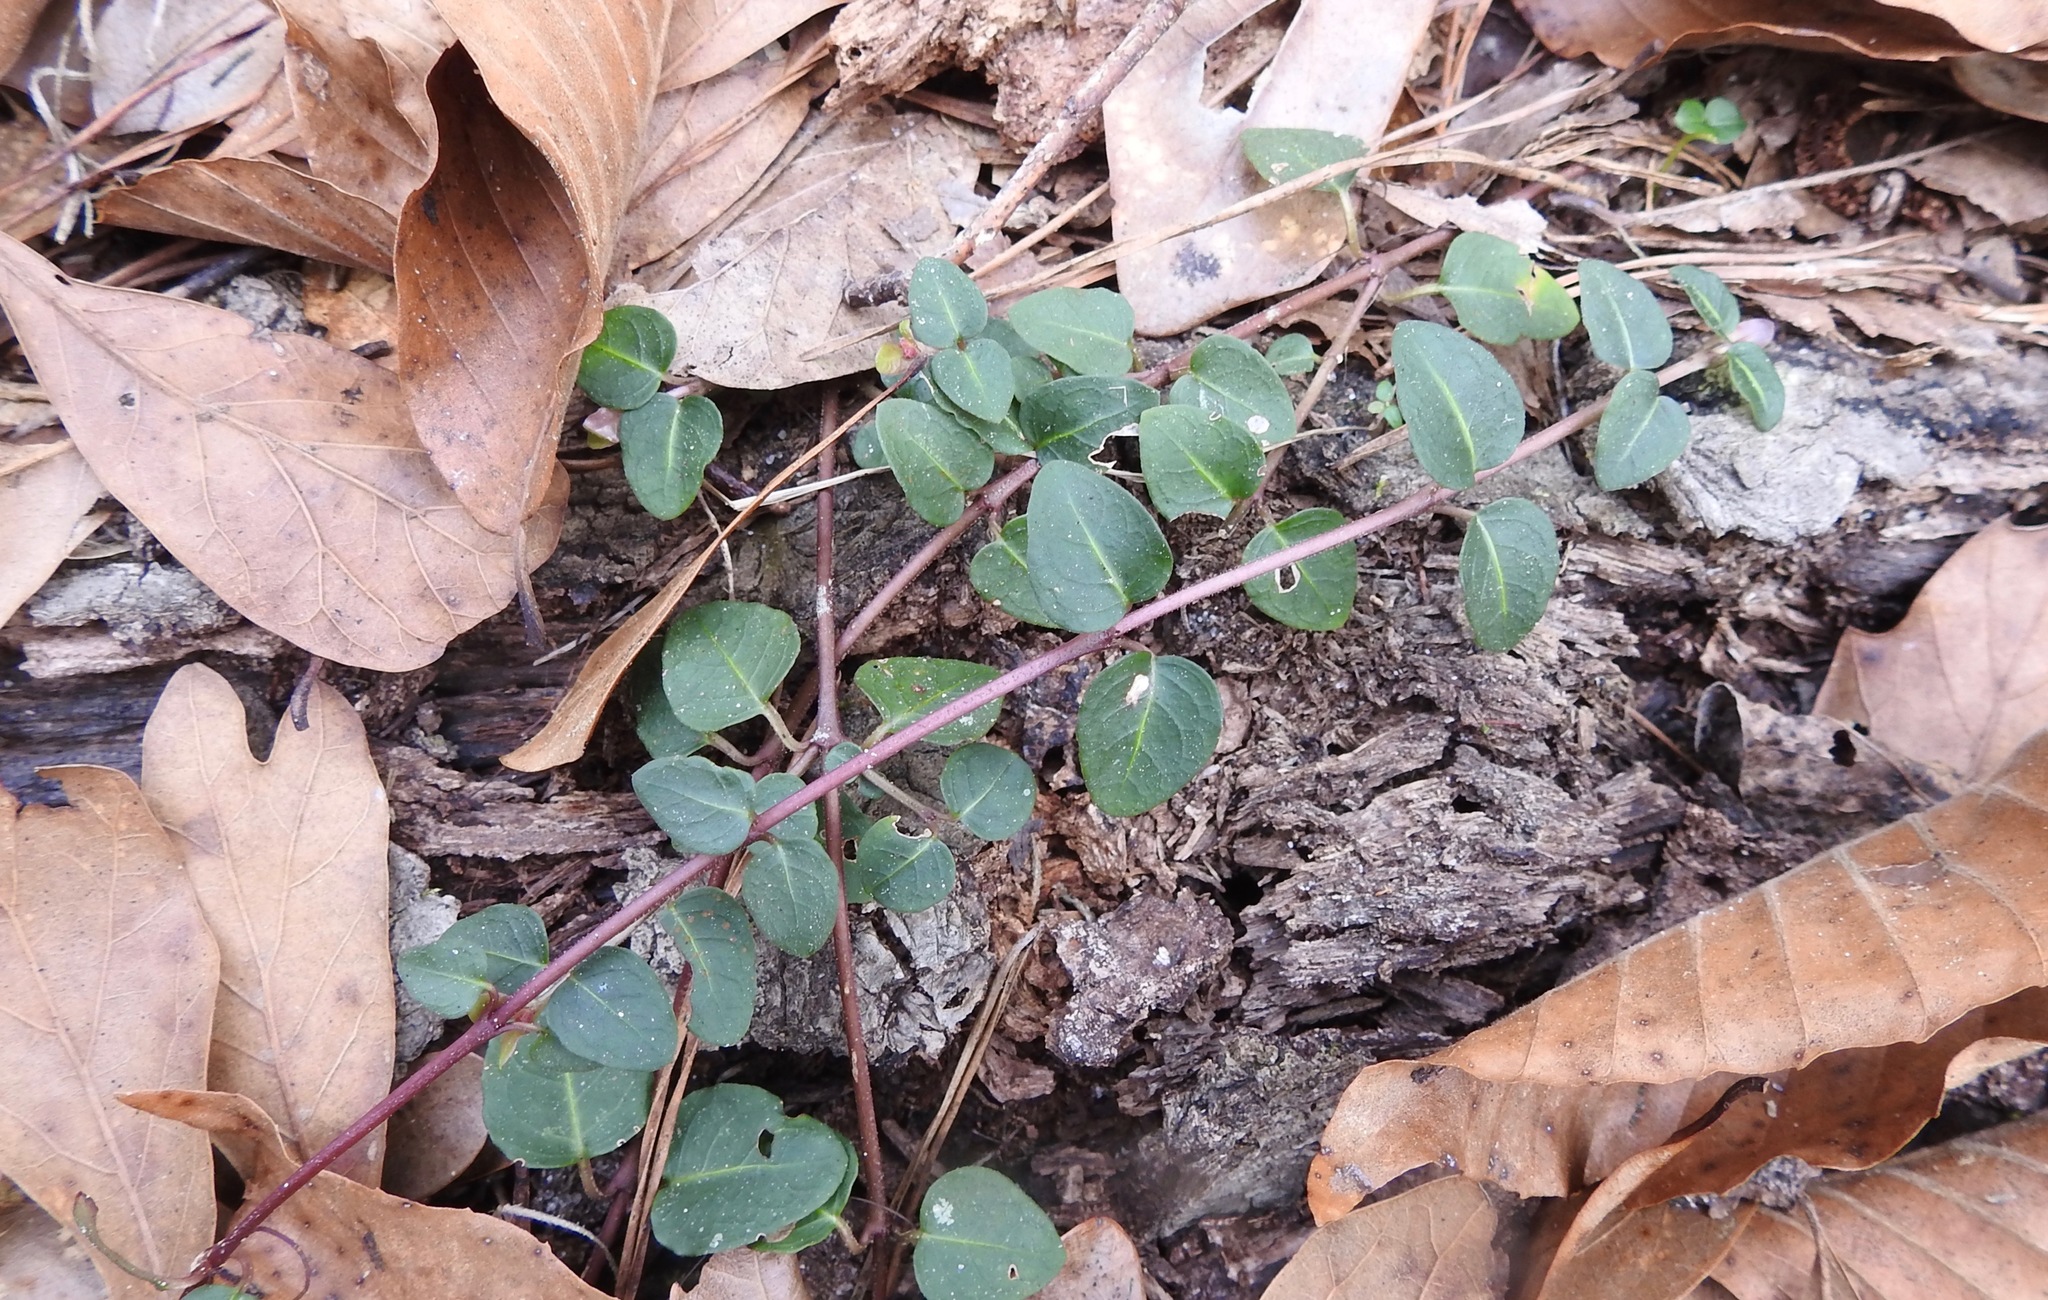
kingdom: Plantae
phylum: Tracheophyta
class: Magnoliopsida
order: Gentianales
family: Rubiaceae
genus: Mitchella
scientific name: Mitchella repens
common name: Partridge-berry
